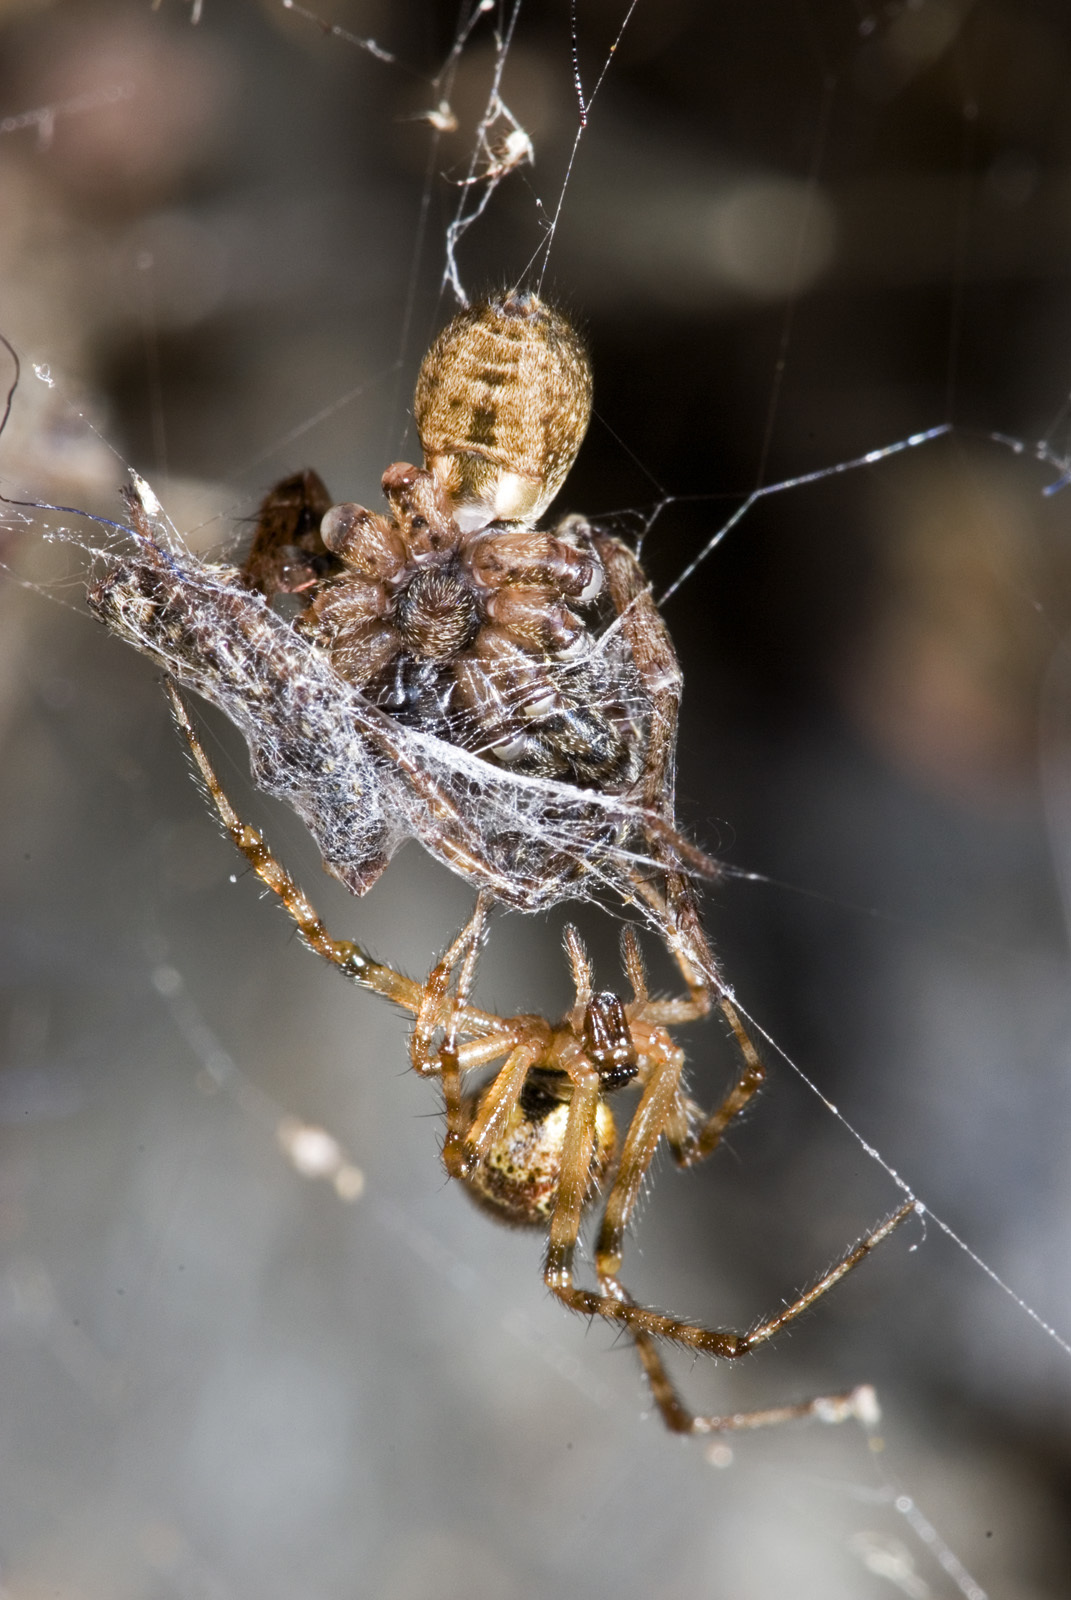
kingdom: Animalia
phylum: Arthropoda
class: Arachnida
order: Araneae
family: Theridiidae
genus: Cryptachaea
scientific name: Cryptachaea veruculata
